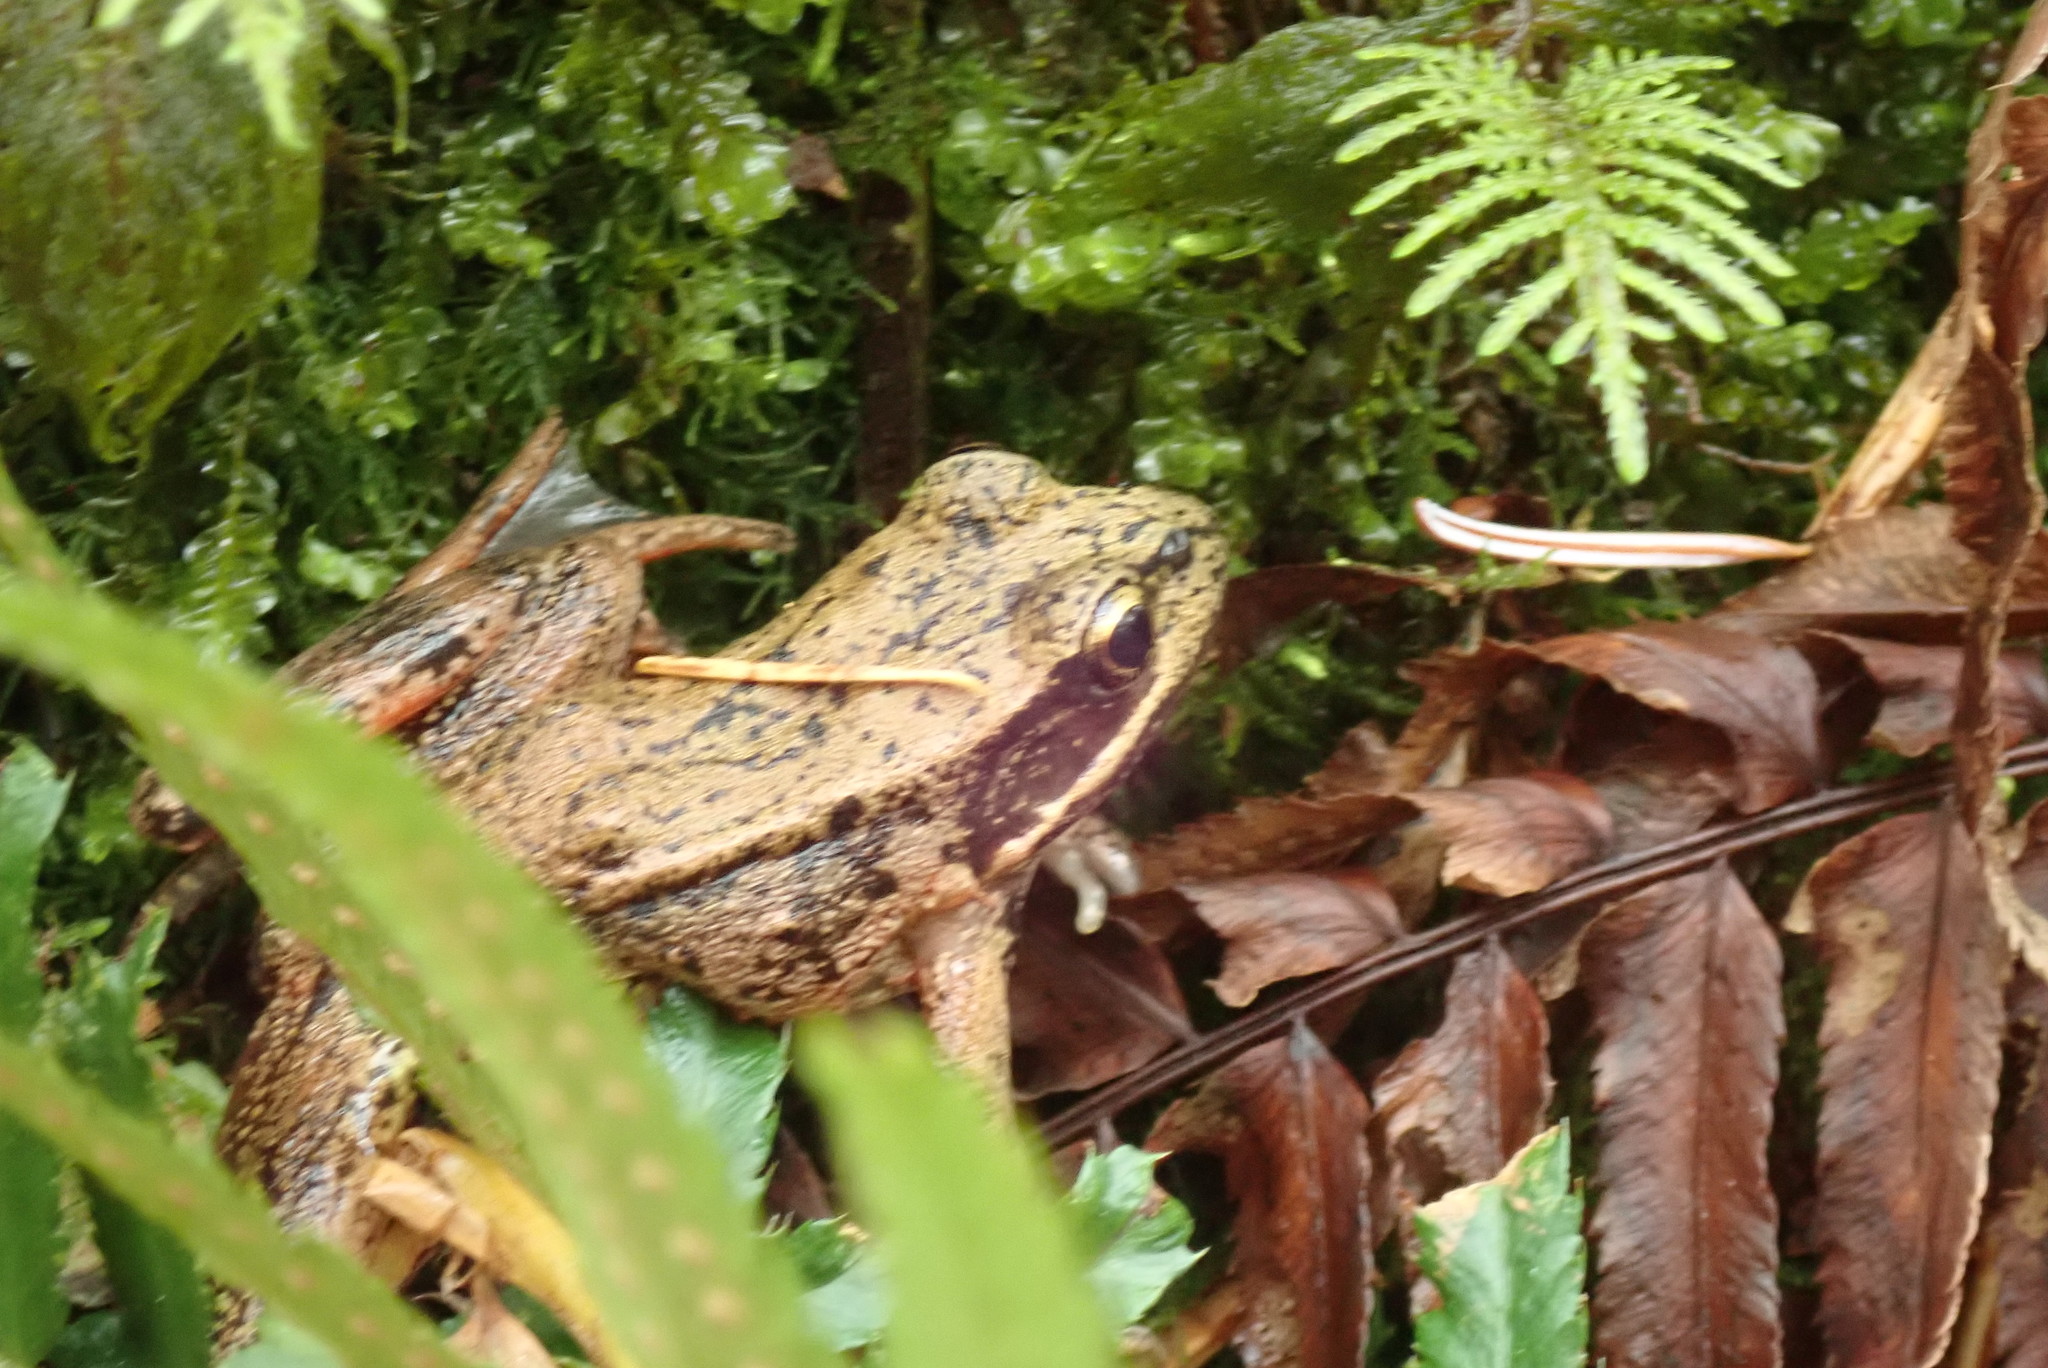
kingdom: Animalia
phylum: Chordata
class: Amphibia
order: Anura
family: Ranidae
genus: Rana
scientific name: Rana aurora
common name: Red-legged frog
